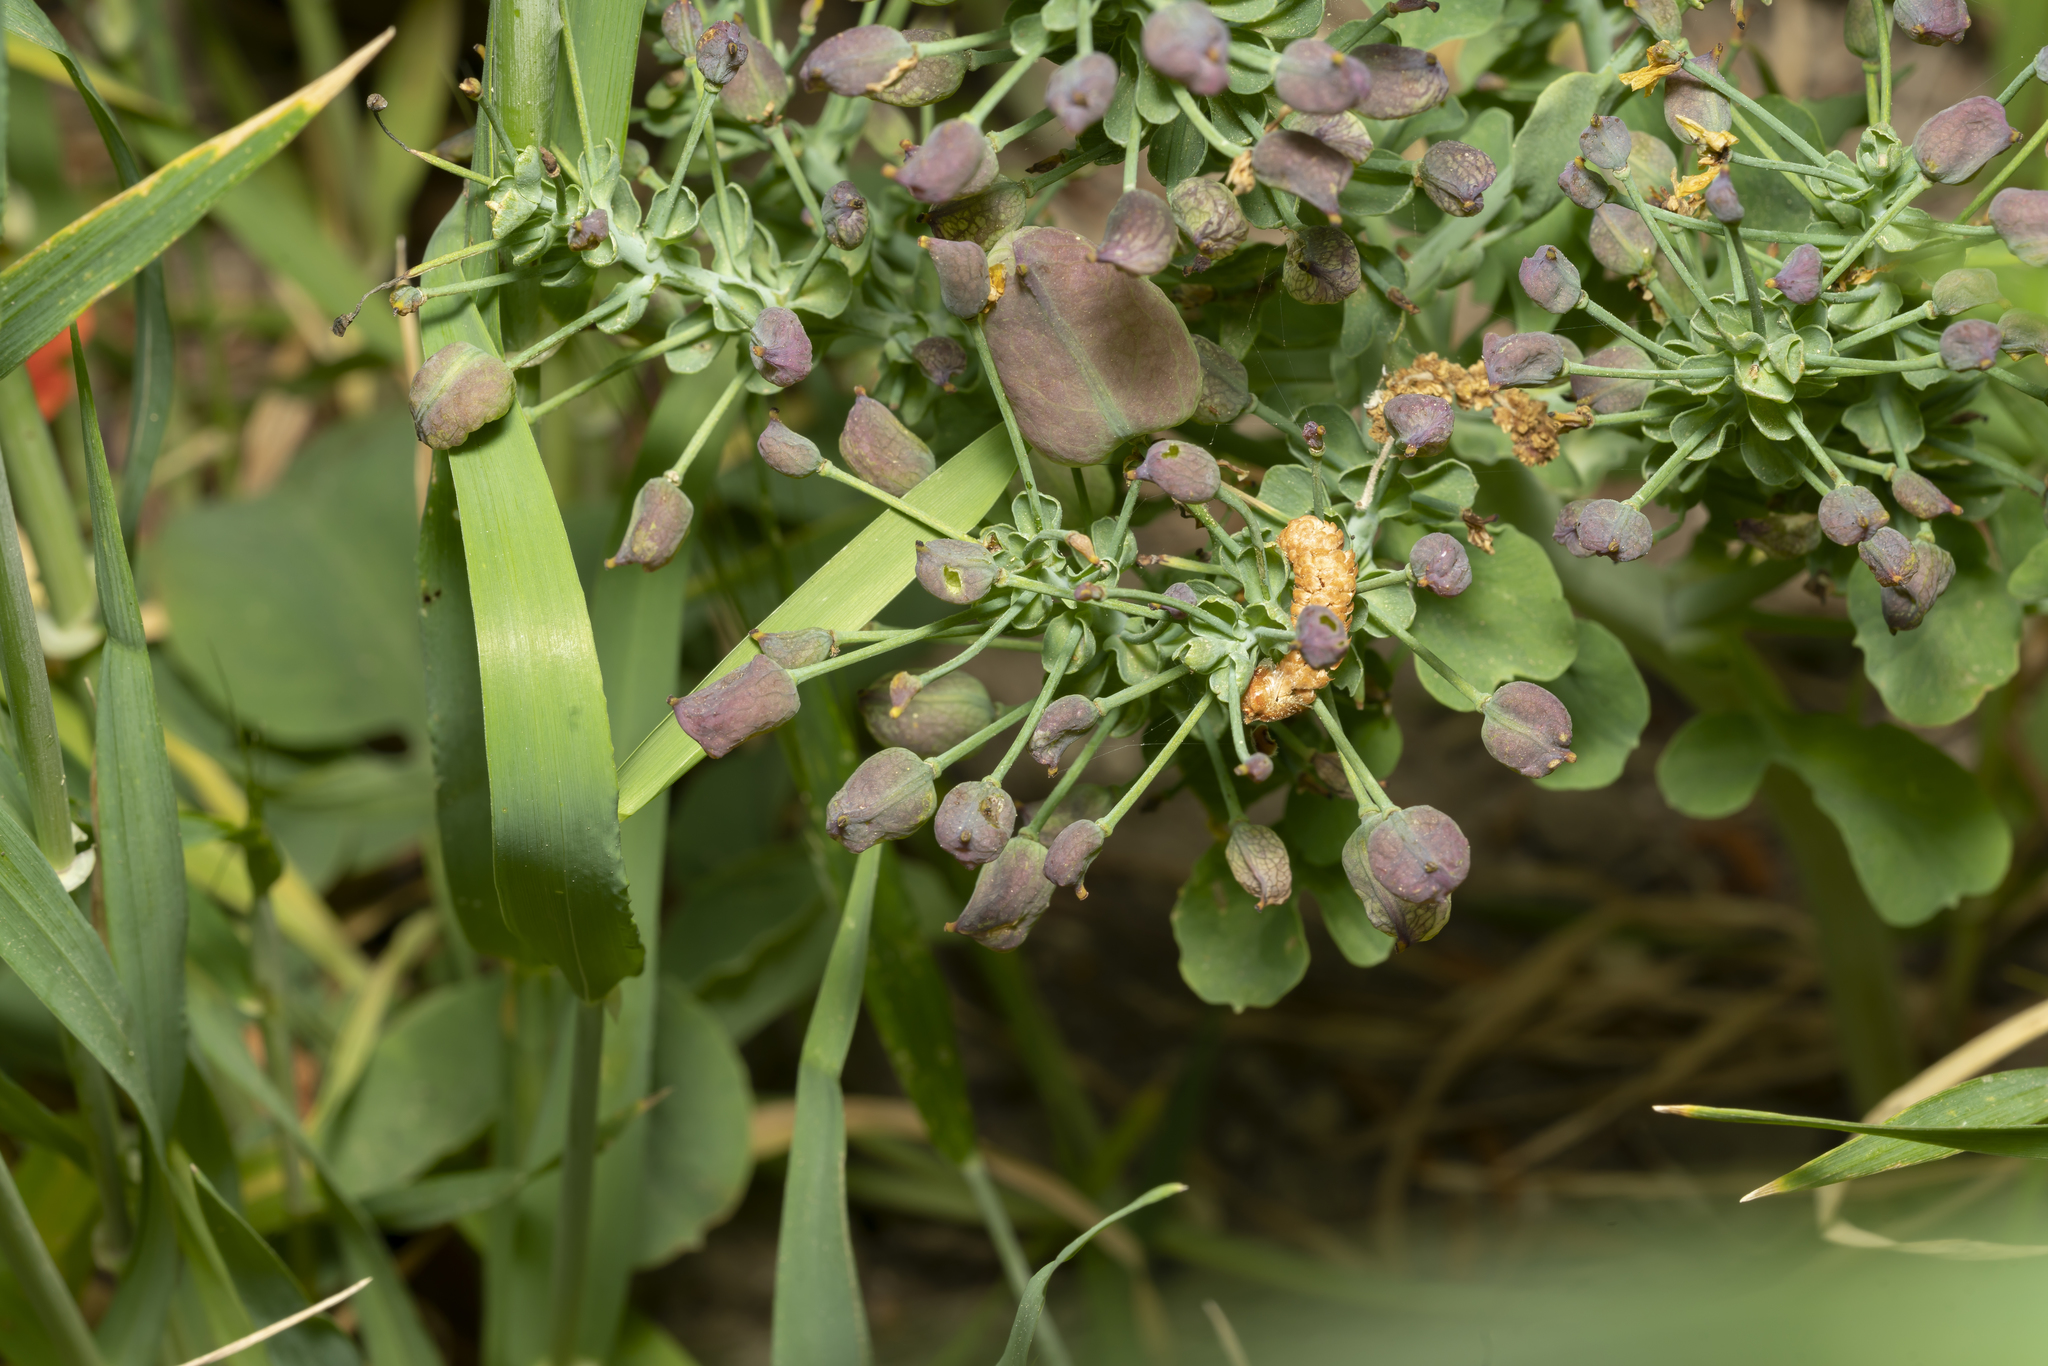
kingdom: Plantae
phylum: Tracheophyta
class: Magnoliopsida
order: Ranunculales
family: Berberidaceae
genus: Leontice
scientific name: Leontice leontopetalum
